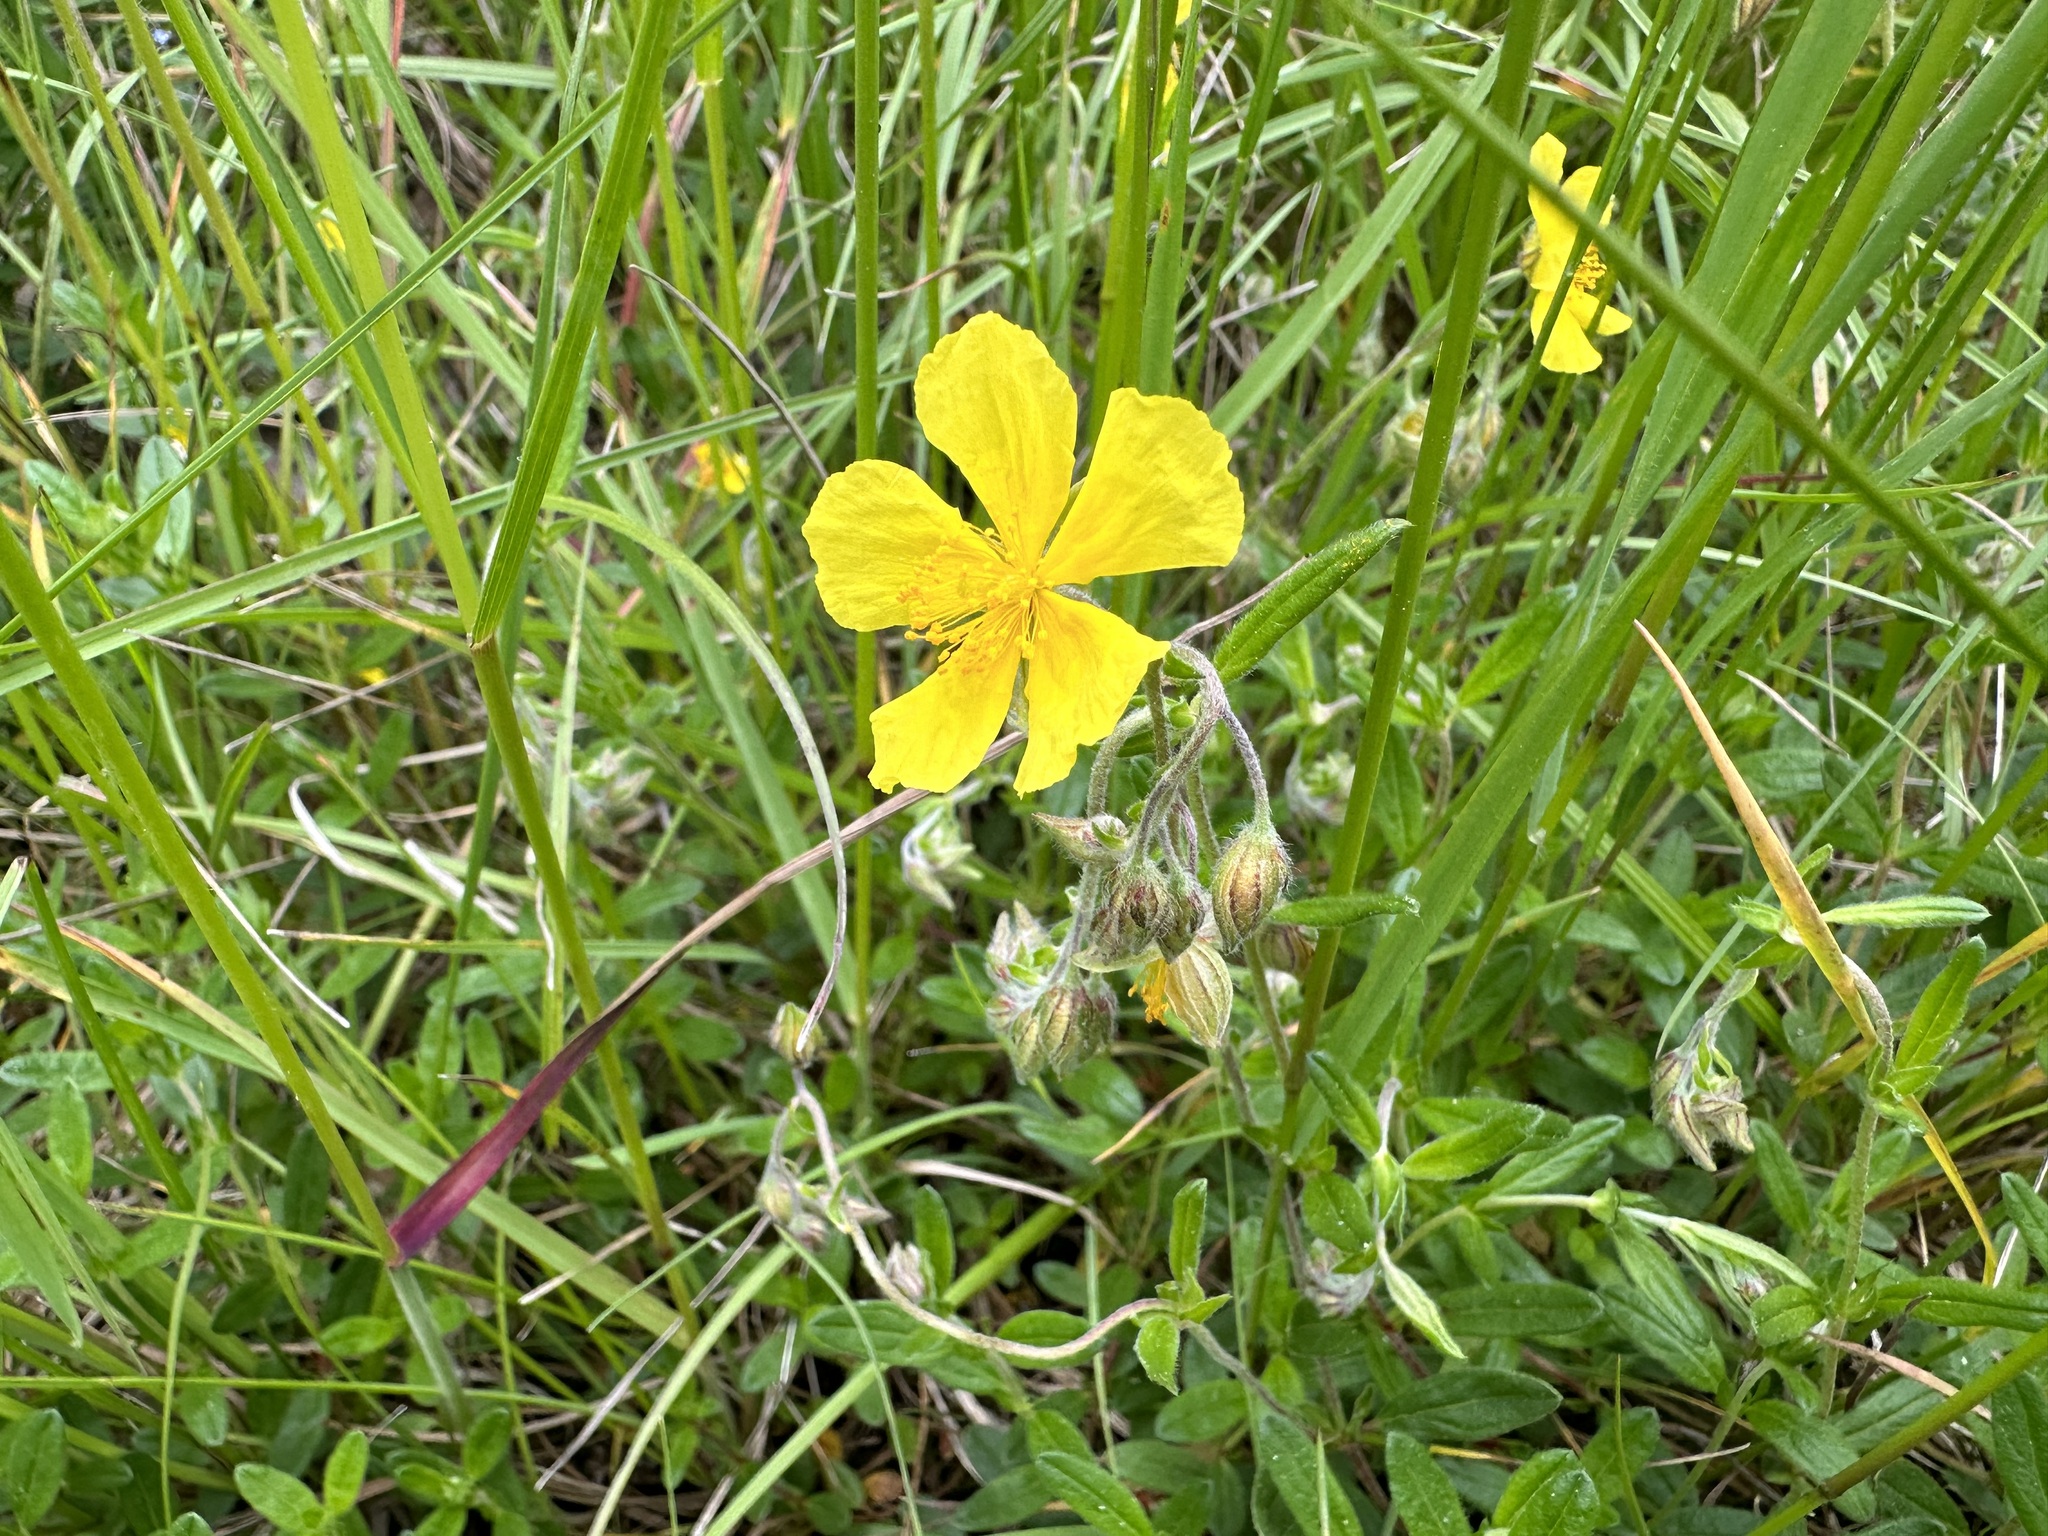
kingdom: Plantae
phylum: Tracheophyta
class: Magnoliopsida
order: Malvales
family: Cistaceae
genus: Helianthemum
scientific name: Helianthemum nummularium
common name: Common rock-rose
